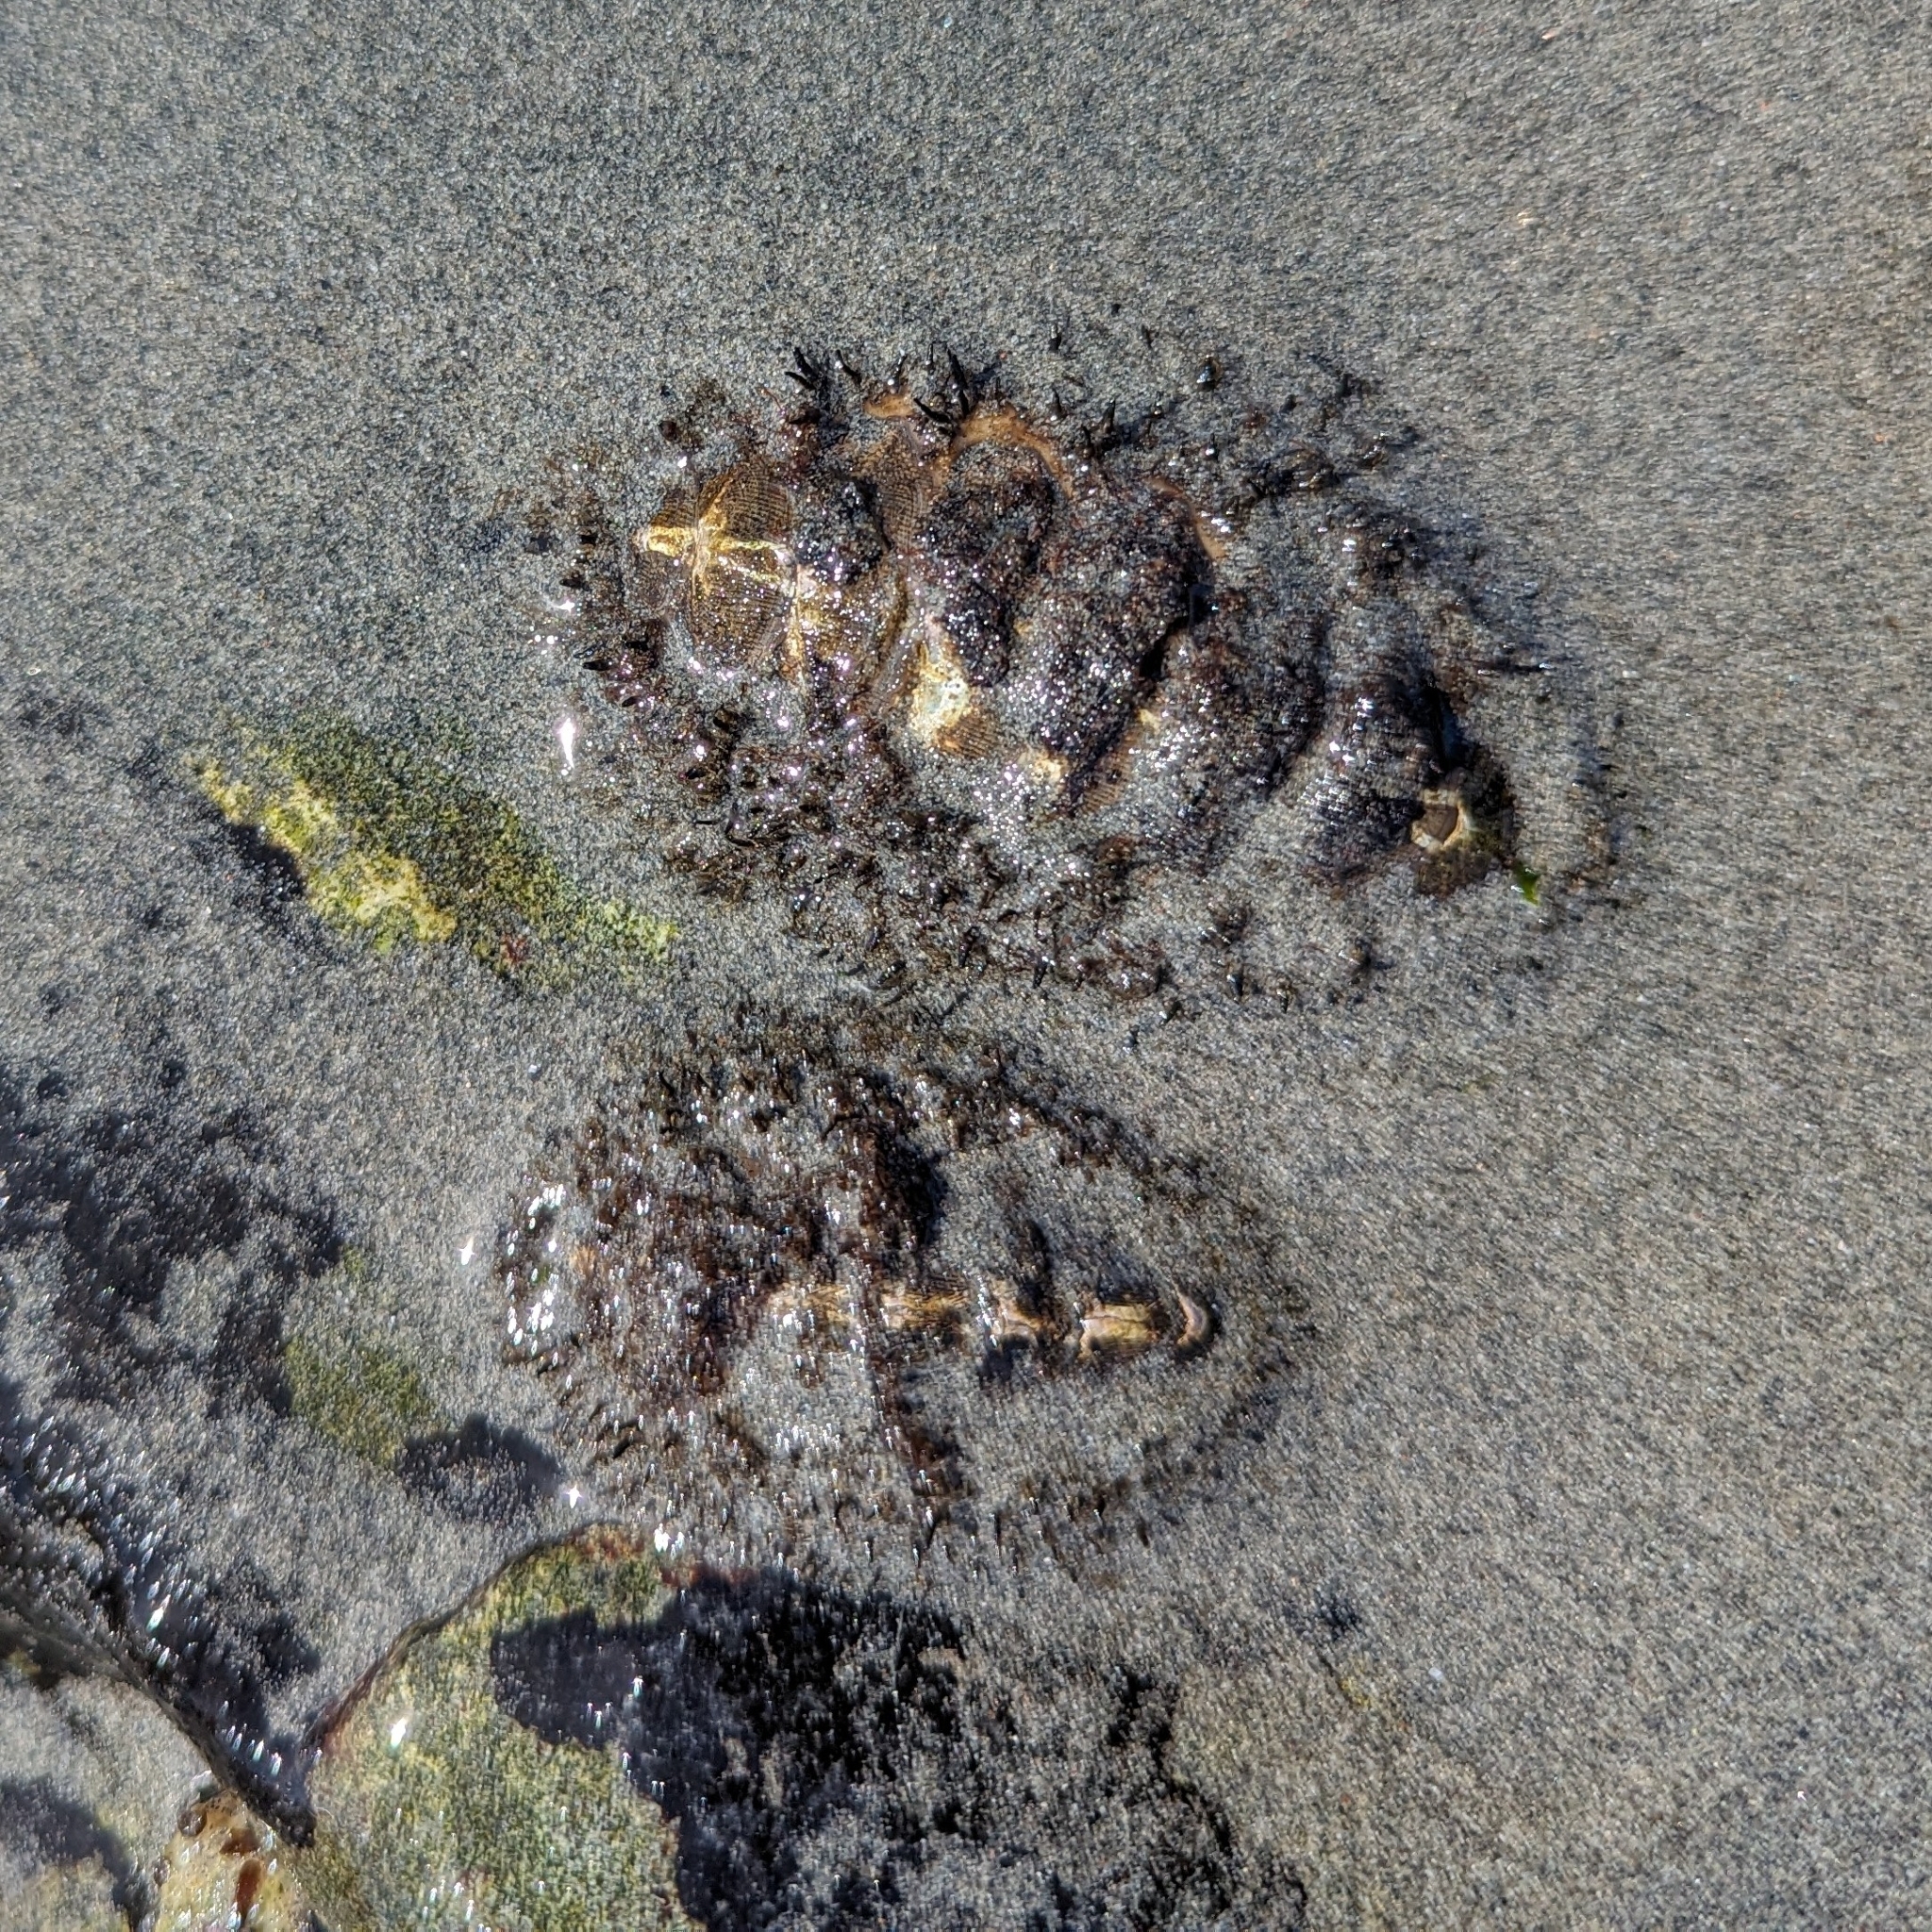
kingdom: Animalia
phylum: Mollusca
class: Polyplacophora
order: Chitonida
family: Mopaliidae
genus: Mopalia
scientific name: Mopalia muscosa
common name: Mossy chiton
